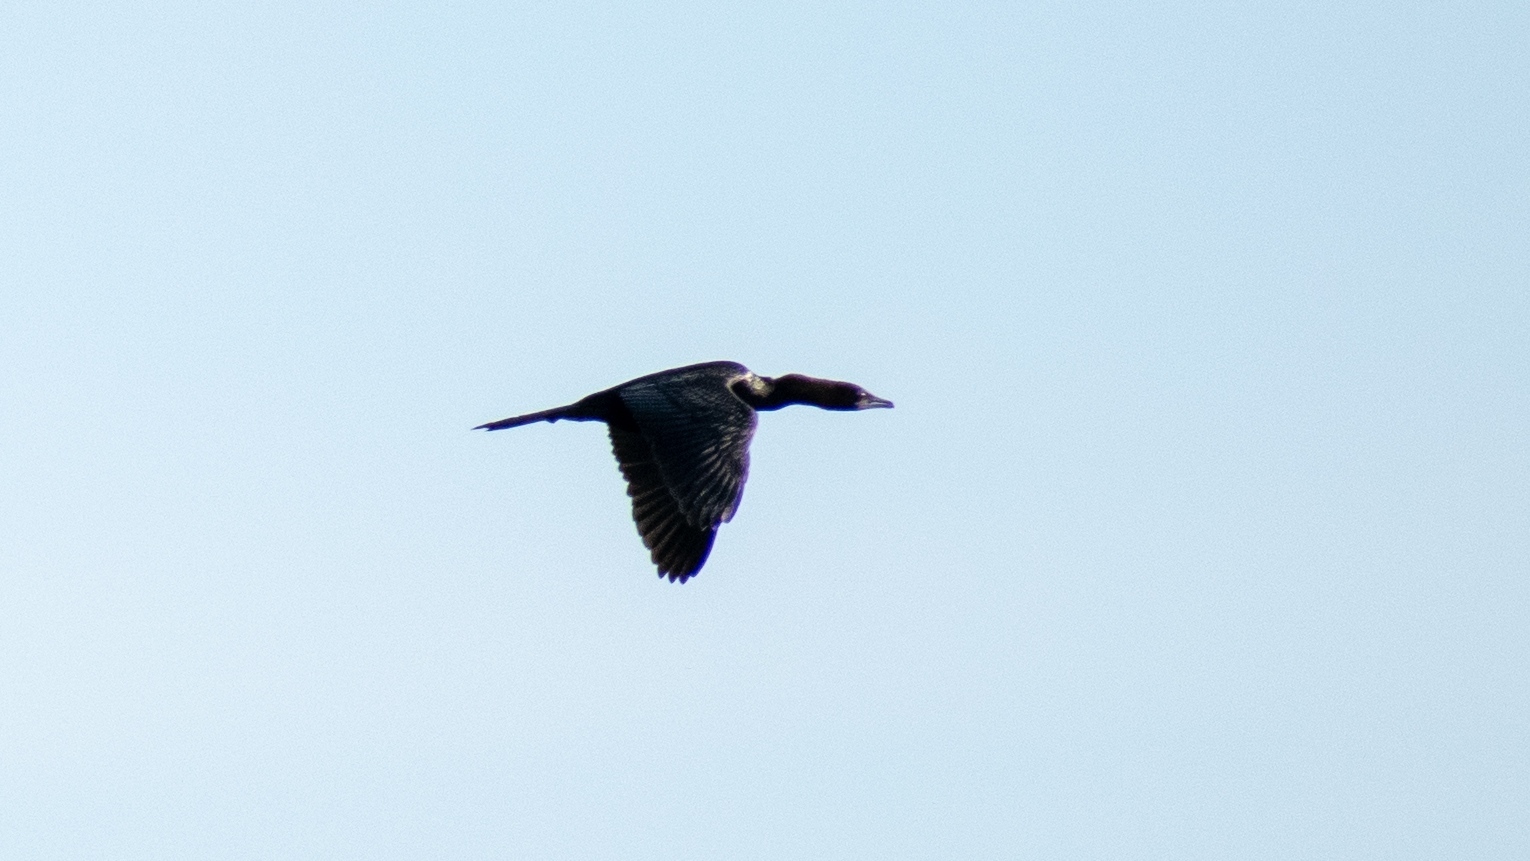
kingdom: Animalia
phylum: Chordata
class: Aves
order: Suliformes
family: Phalacrocoracidae
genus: Microcarbo
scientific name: Microcarbo pygmaeus
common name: Pygmy cormorant
